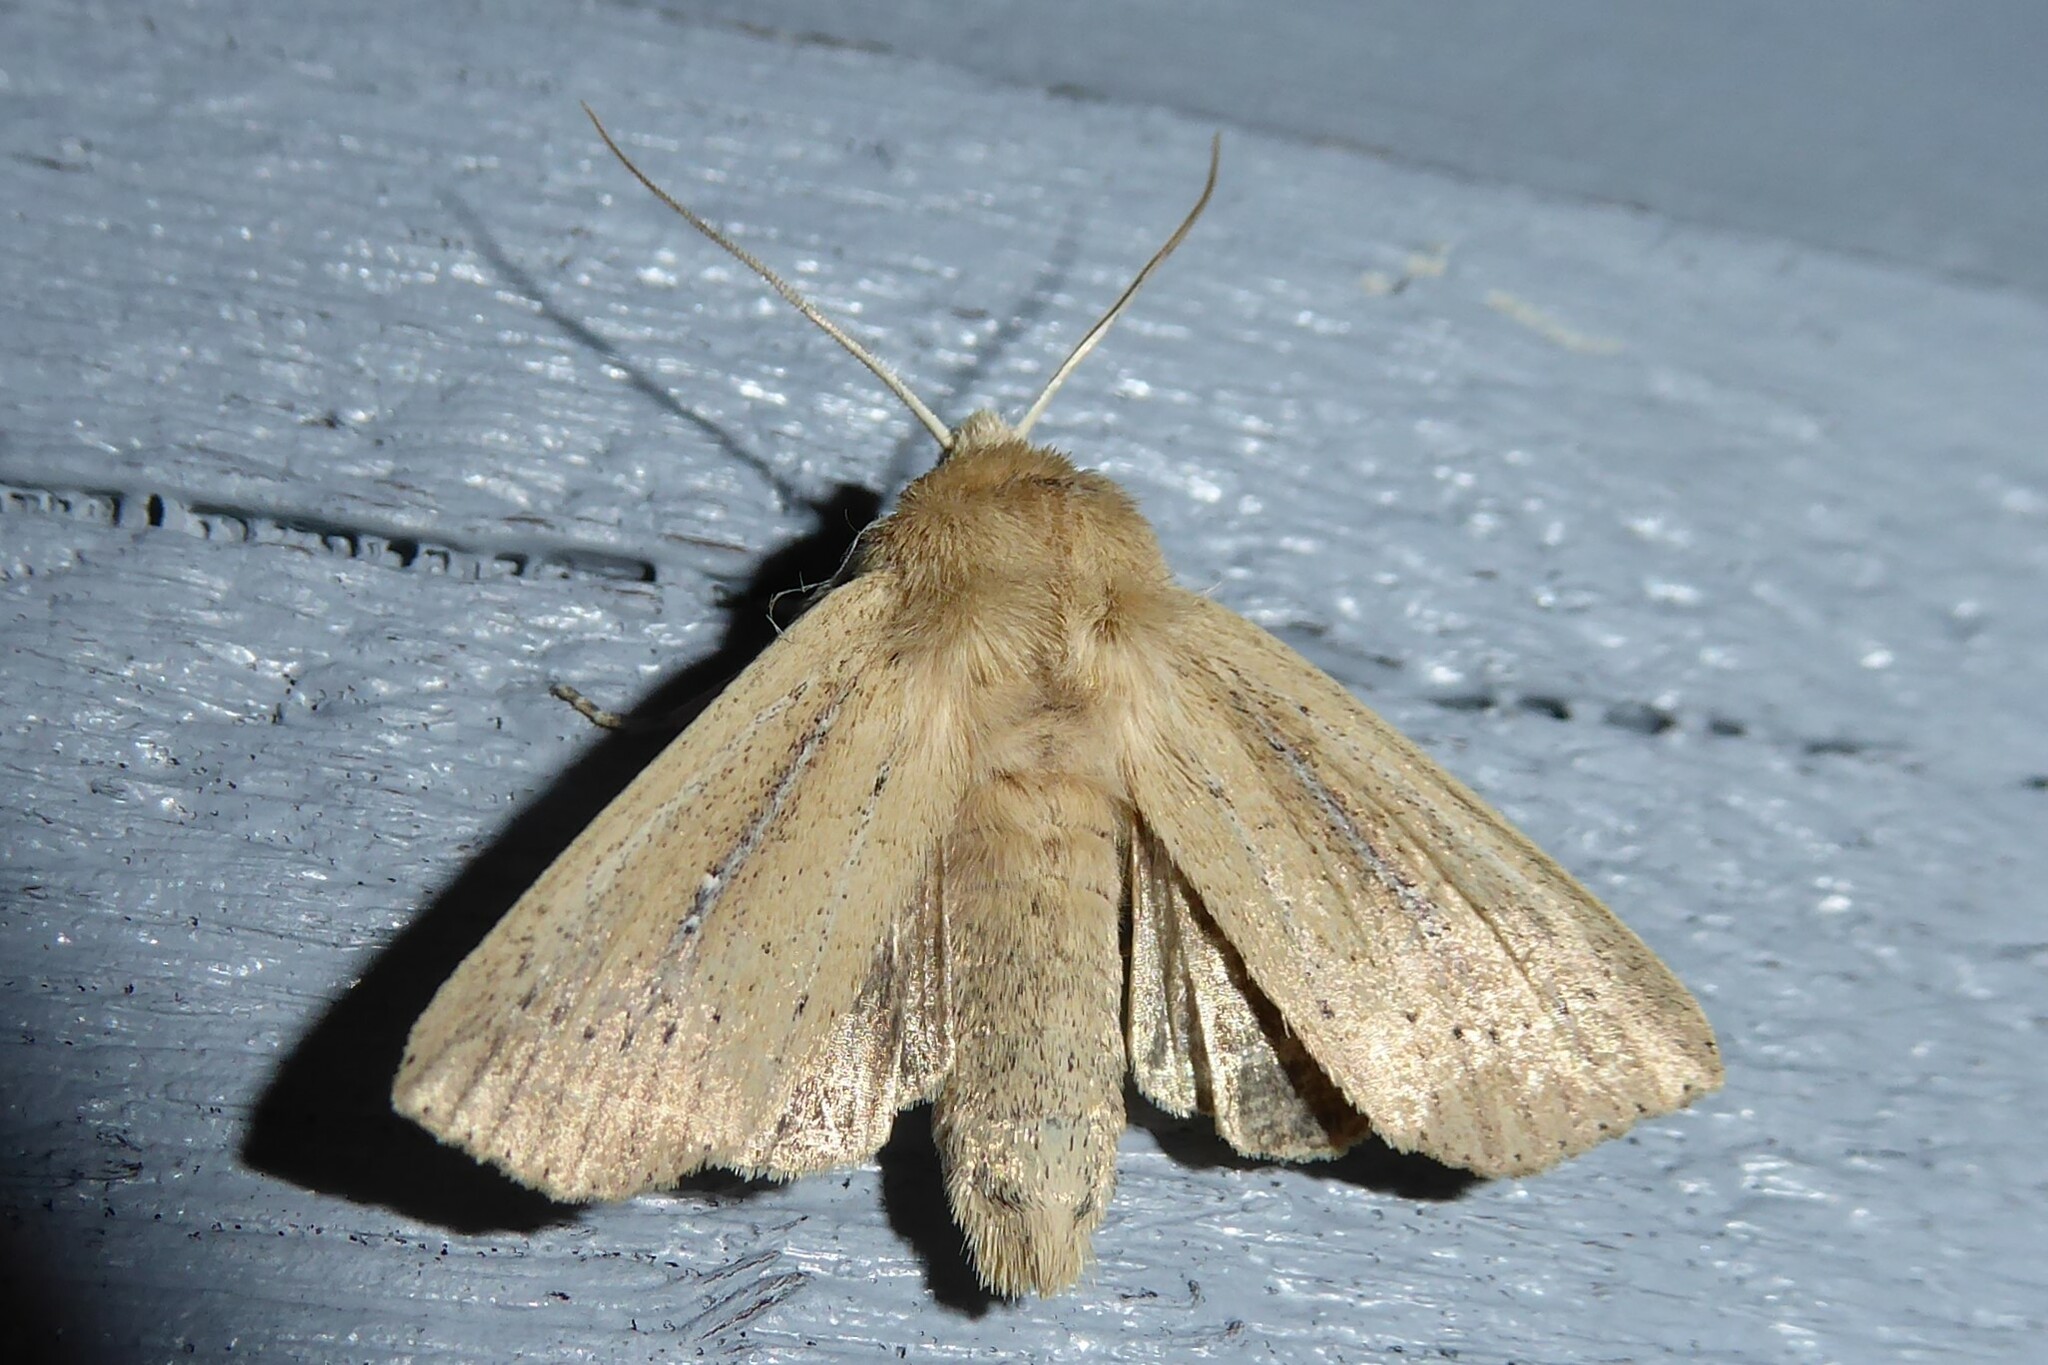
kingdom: Animalia
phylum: Arthropoda
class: Insecta
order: Lepidoptera
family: Noctuidae
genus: Ichneutica
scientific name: Ichneutica
